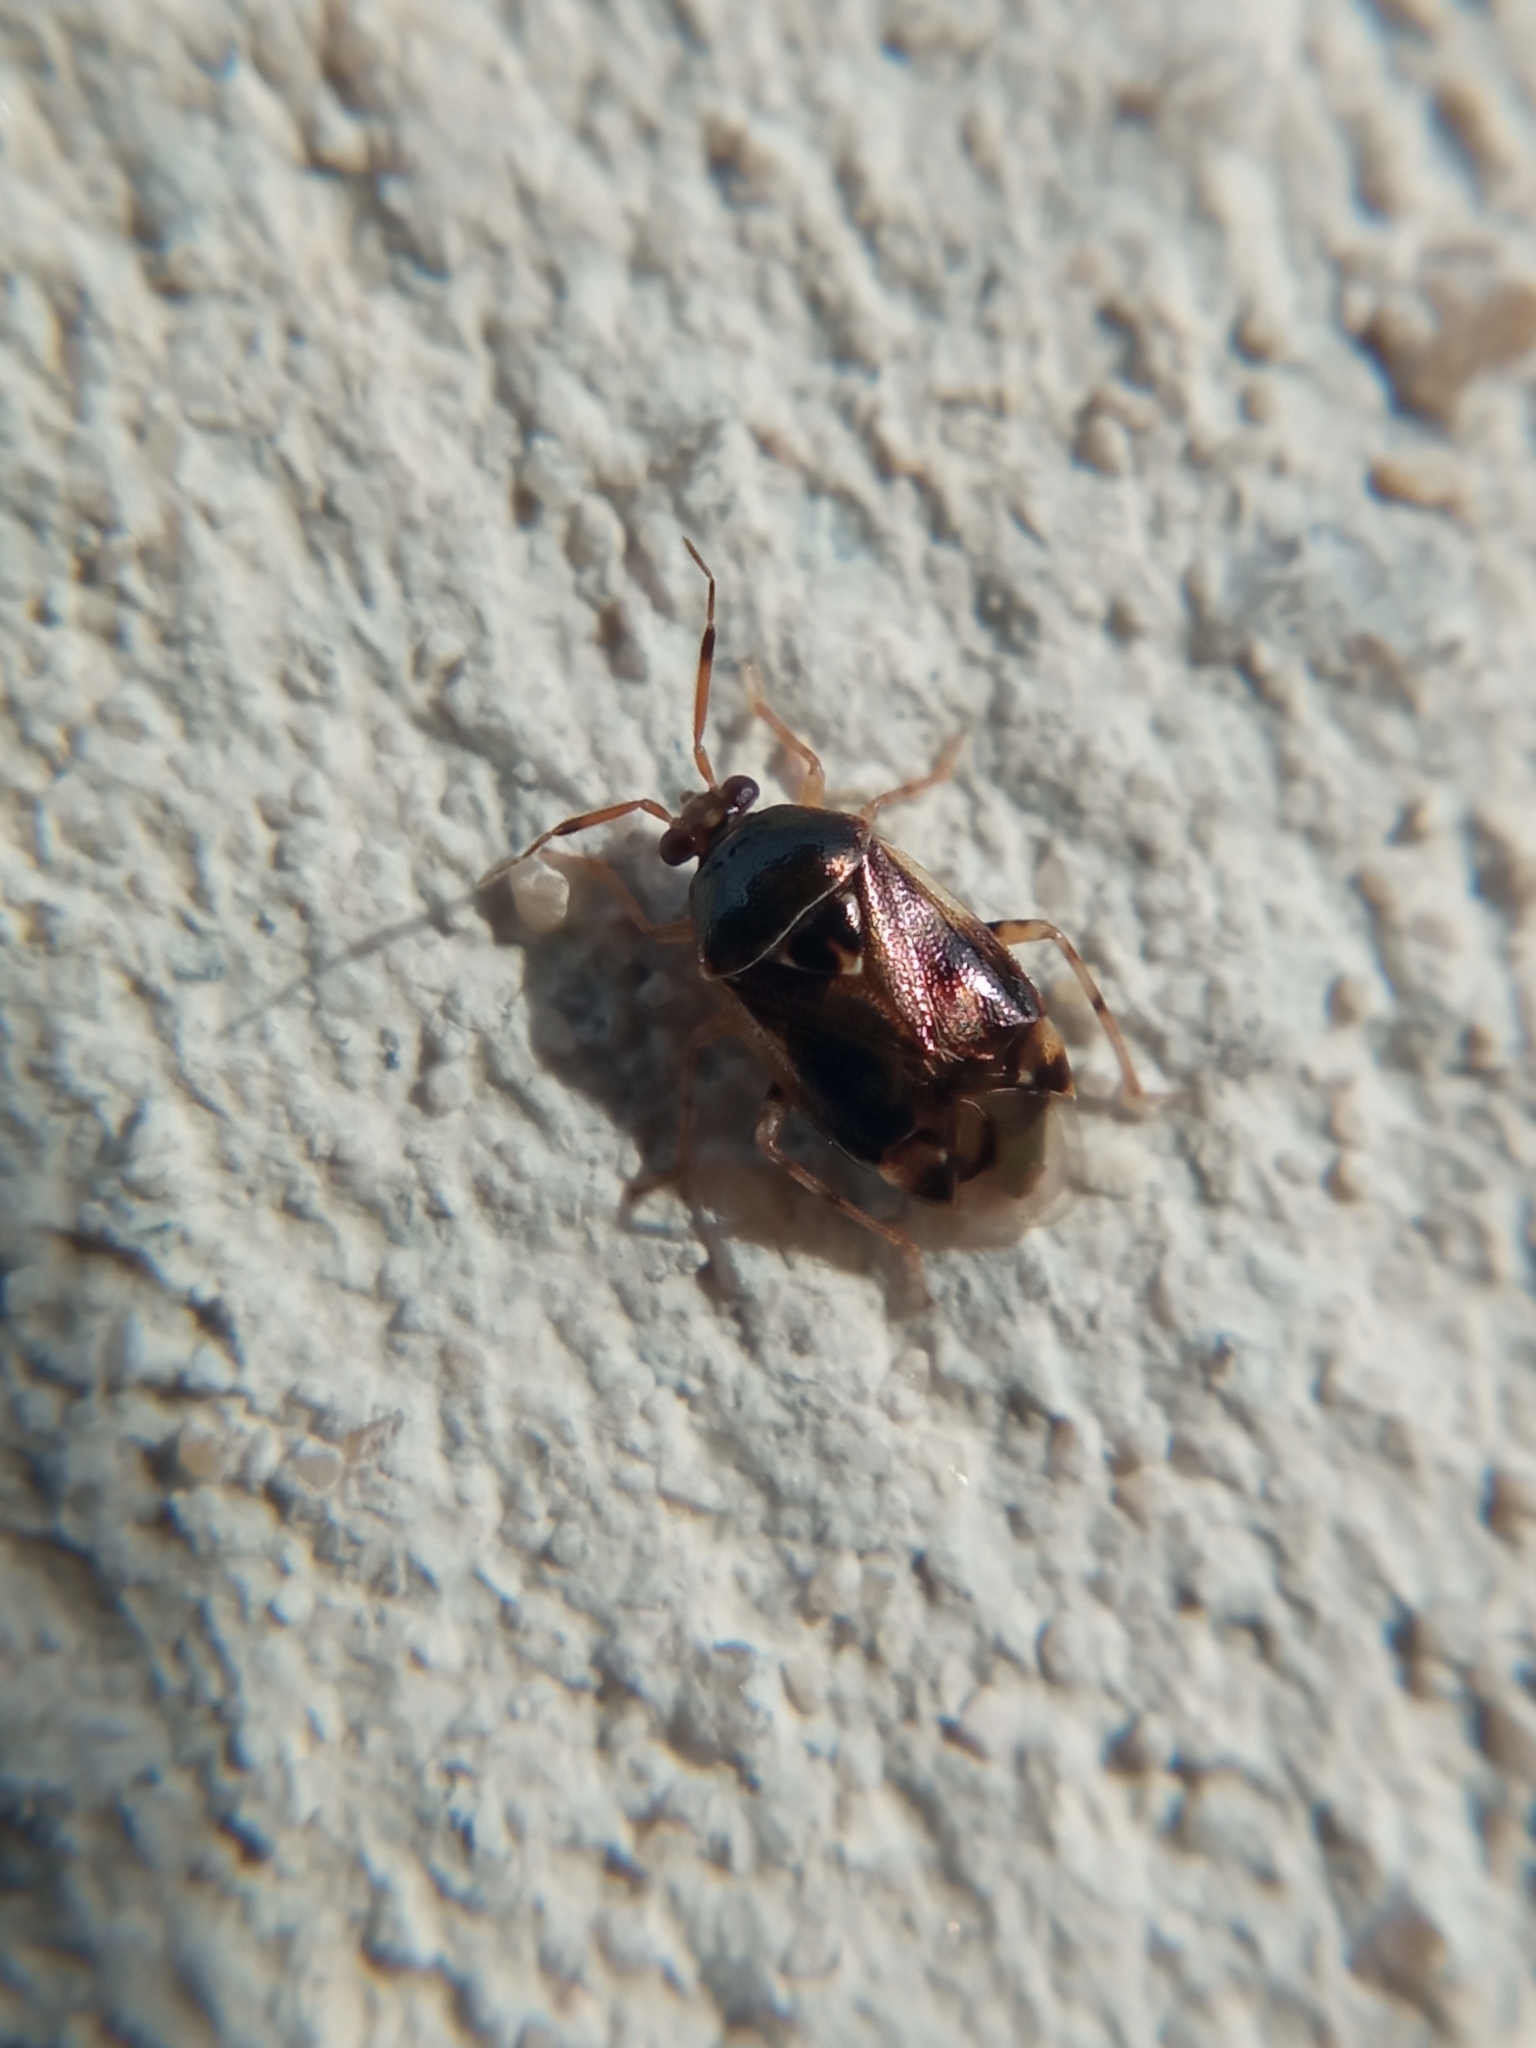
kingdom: Animalia
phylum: Arthropoda
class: Insecta
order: Hemiptera
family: Miridae
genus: Deraeocoris
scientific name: Deraeocoris lutescens
